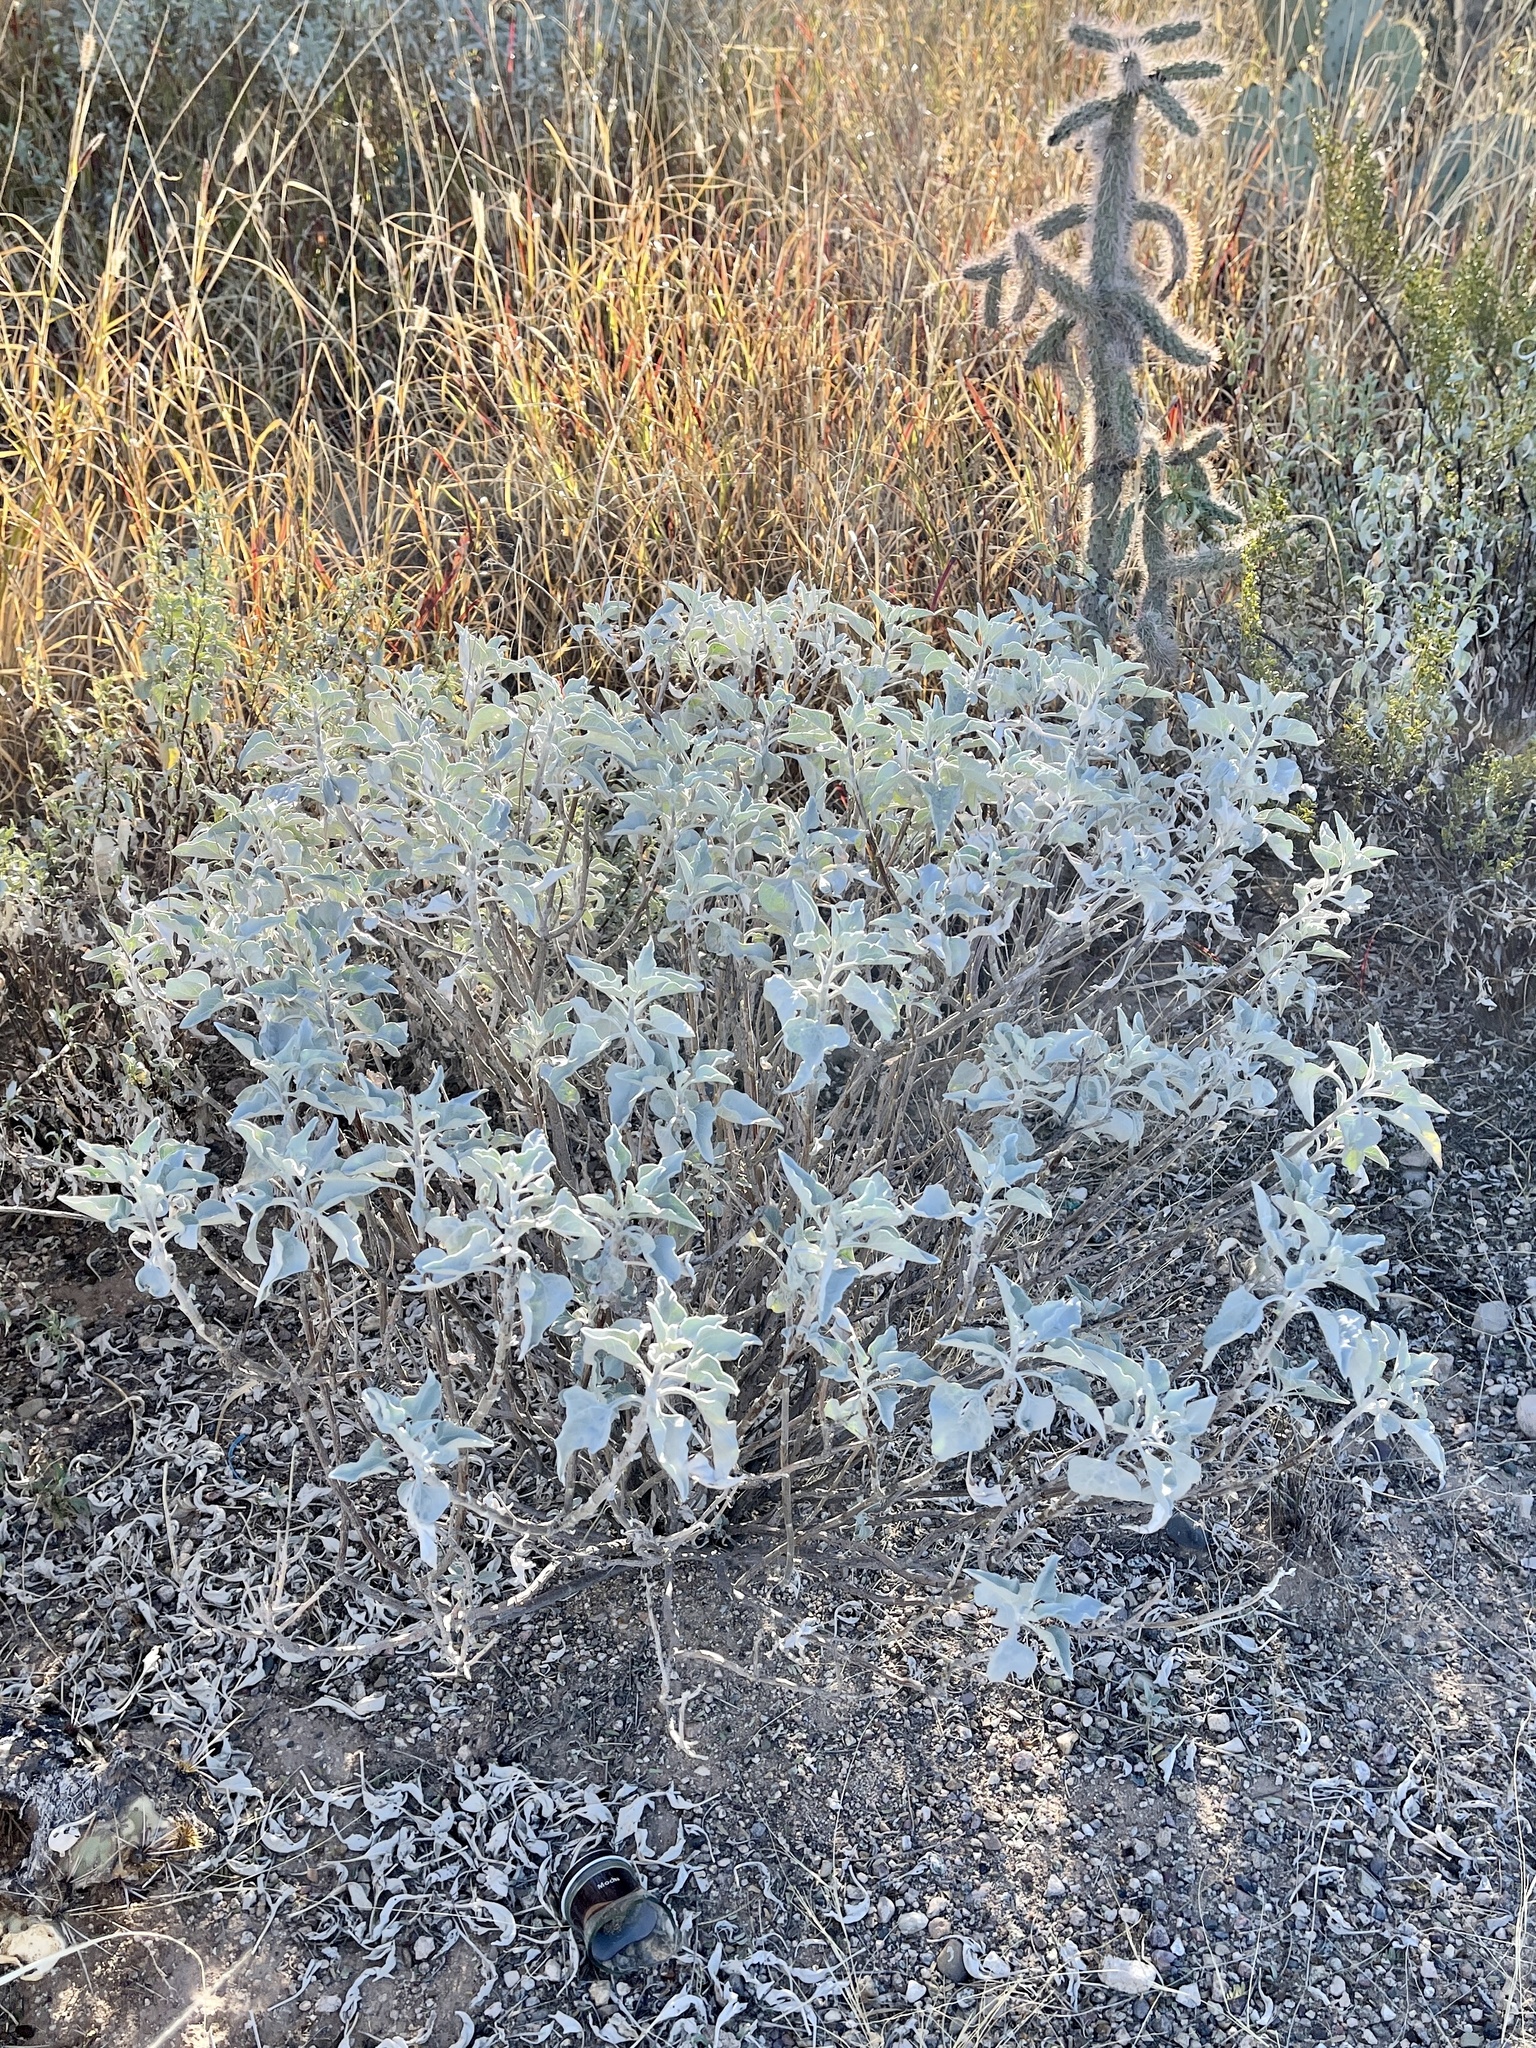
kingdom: Plantae
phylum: Tracheophyta
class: Magnoliopsida
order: Asterales
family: Asteraceae
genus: Encelia
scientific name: Encelia farinosa
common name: Brittlebush
